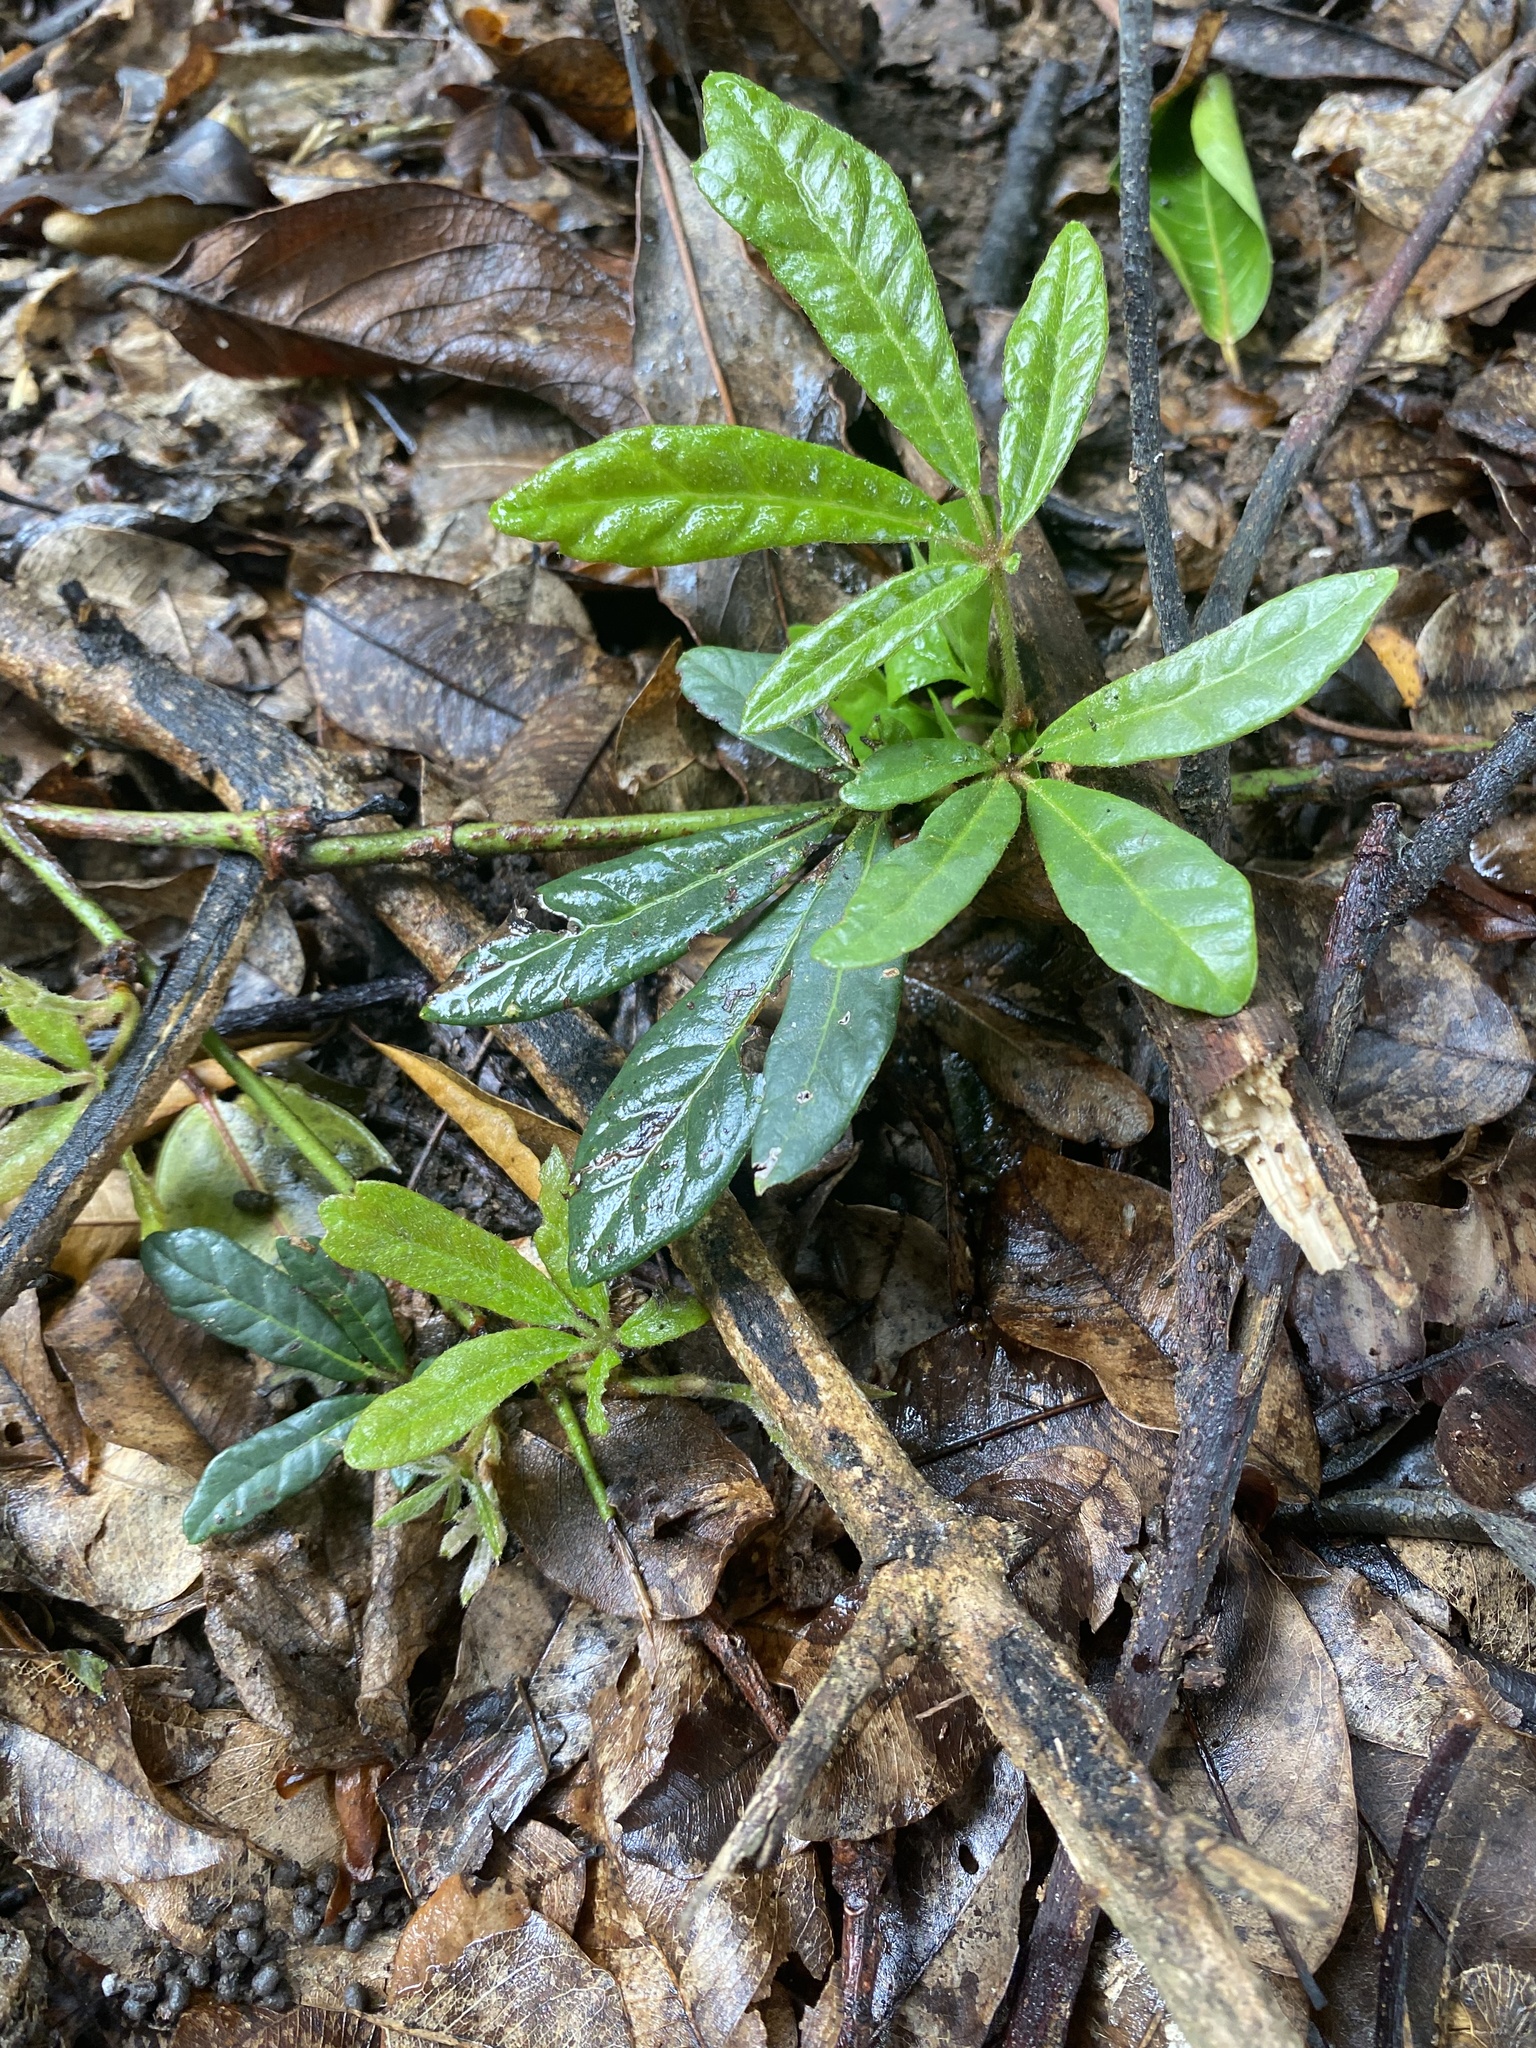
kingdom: Plantae
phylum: Tracheophyta
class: Magnoliopsida
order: Vitales
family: Vitaceae
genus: Rhoicissus
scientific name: Rhoicissus digitata
